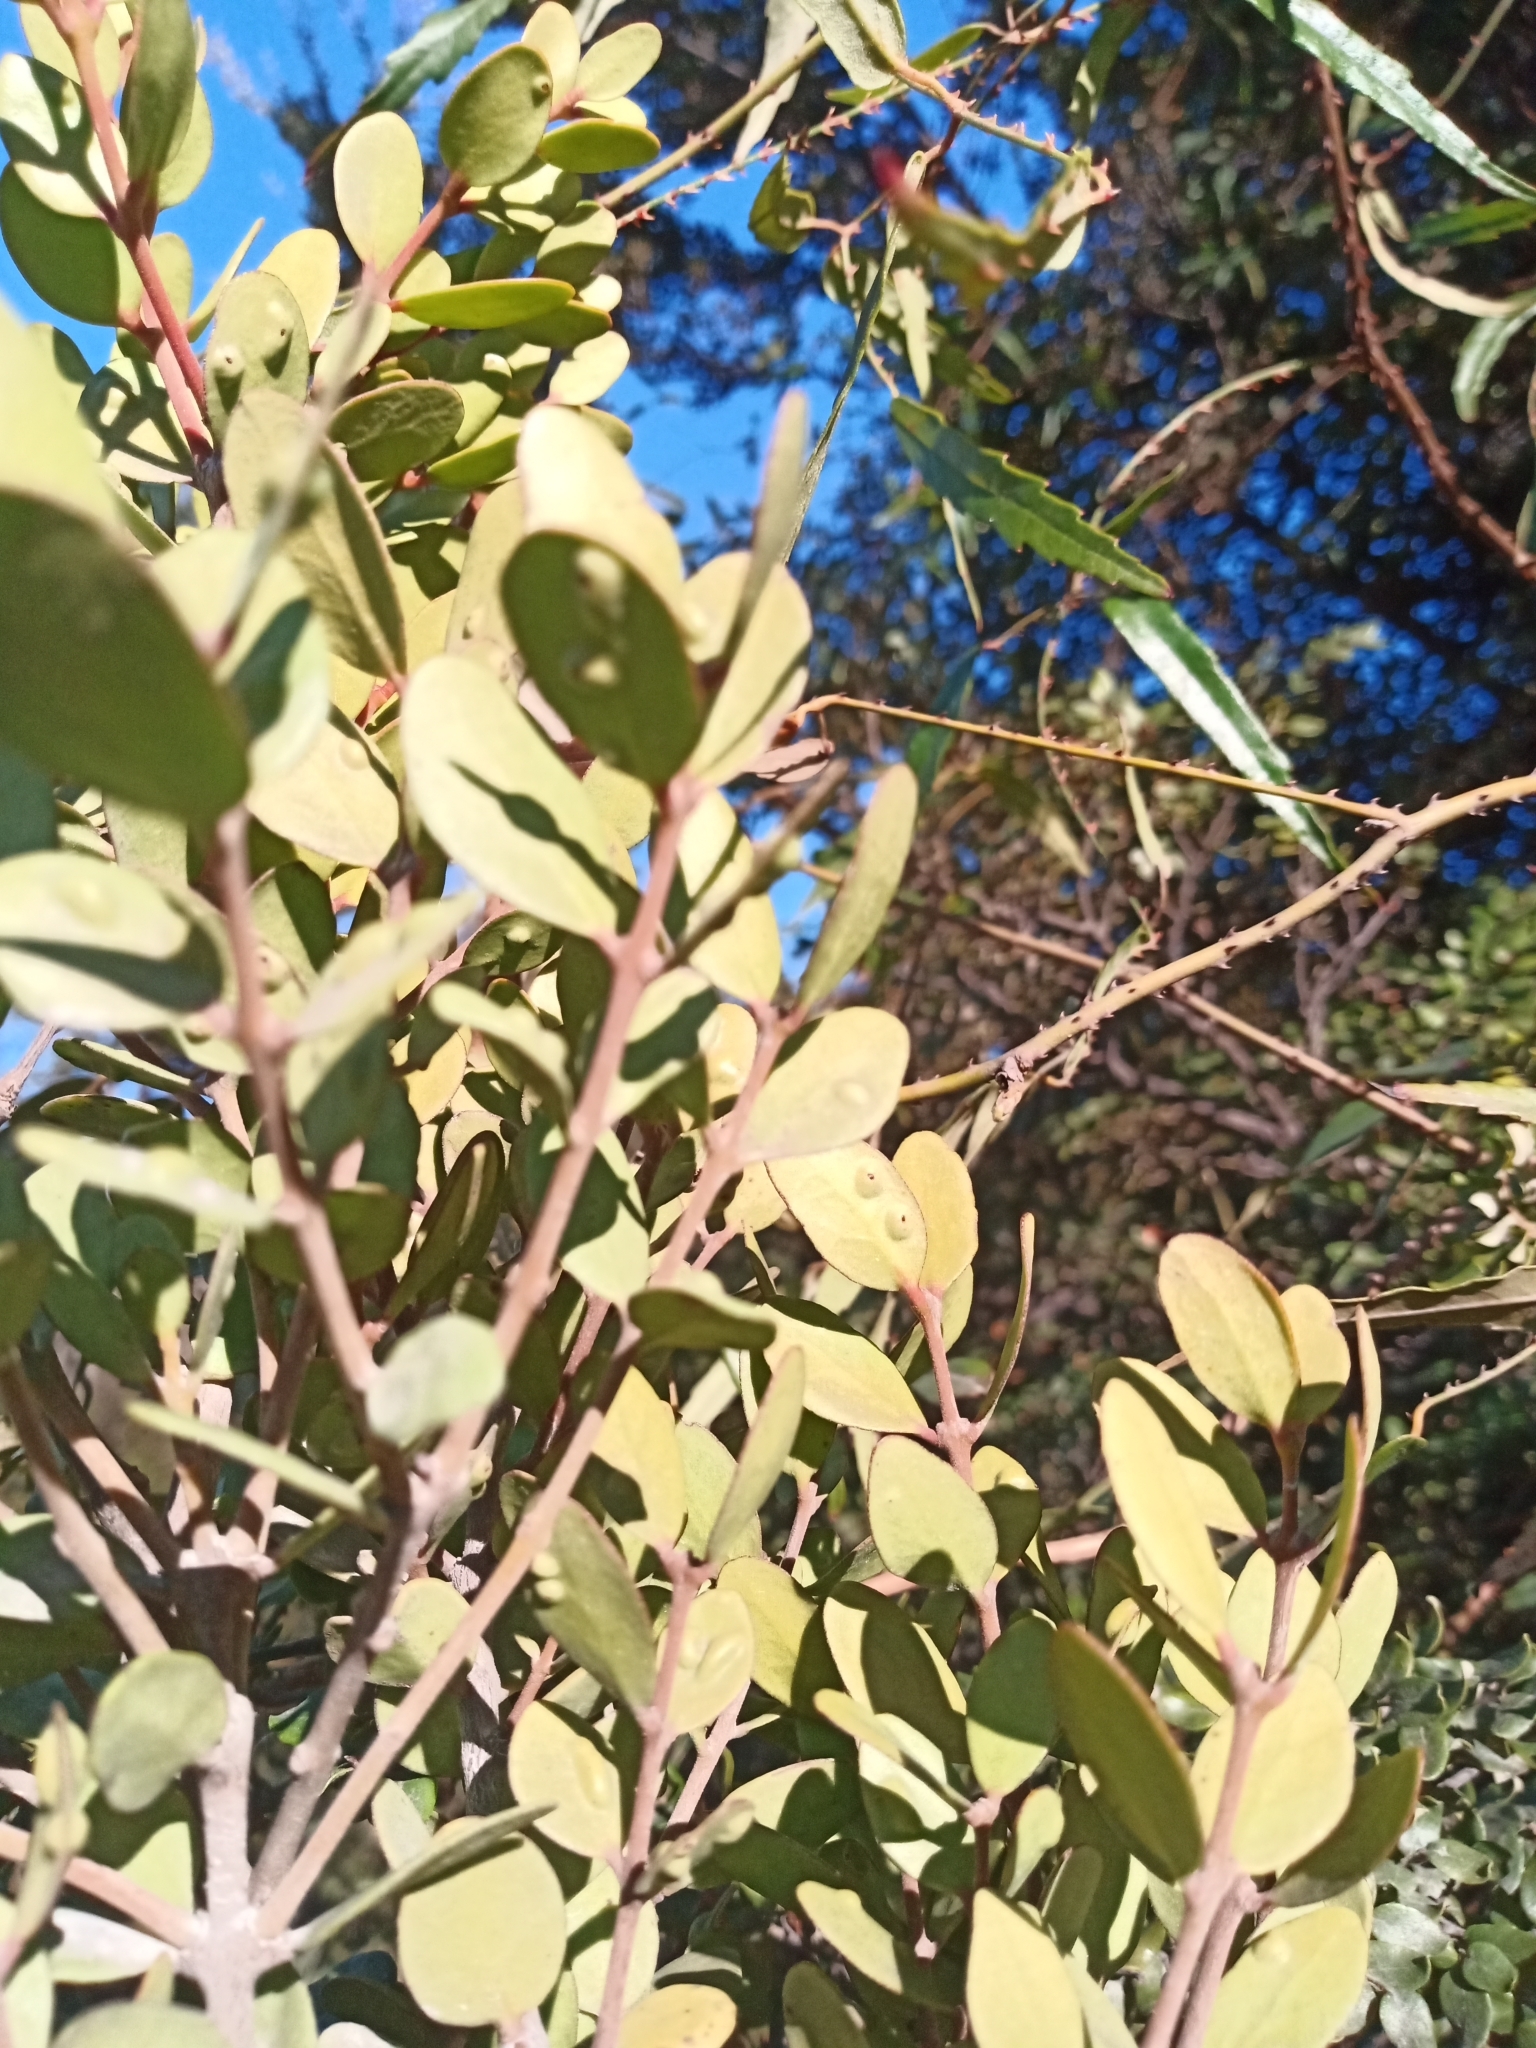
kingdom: Plantae
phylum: Tracheophyta
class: Magnoliopsida
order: Santalales
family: Loranthaceae
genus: Peraxilla
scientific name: Peraxilla tetrapetala
